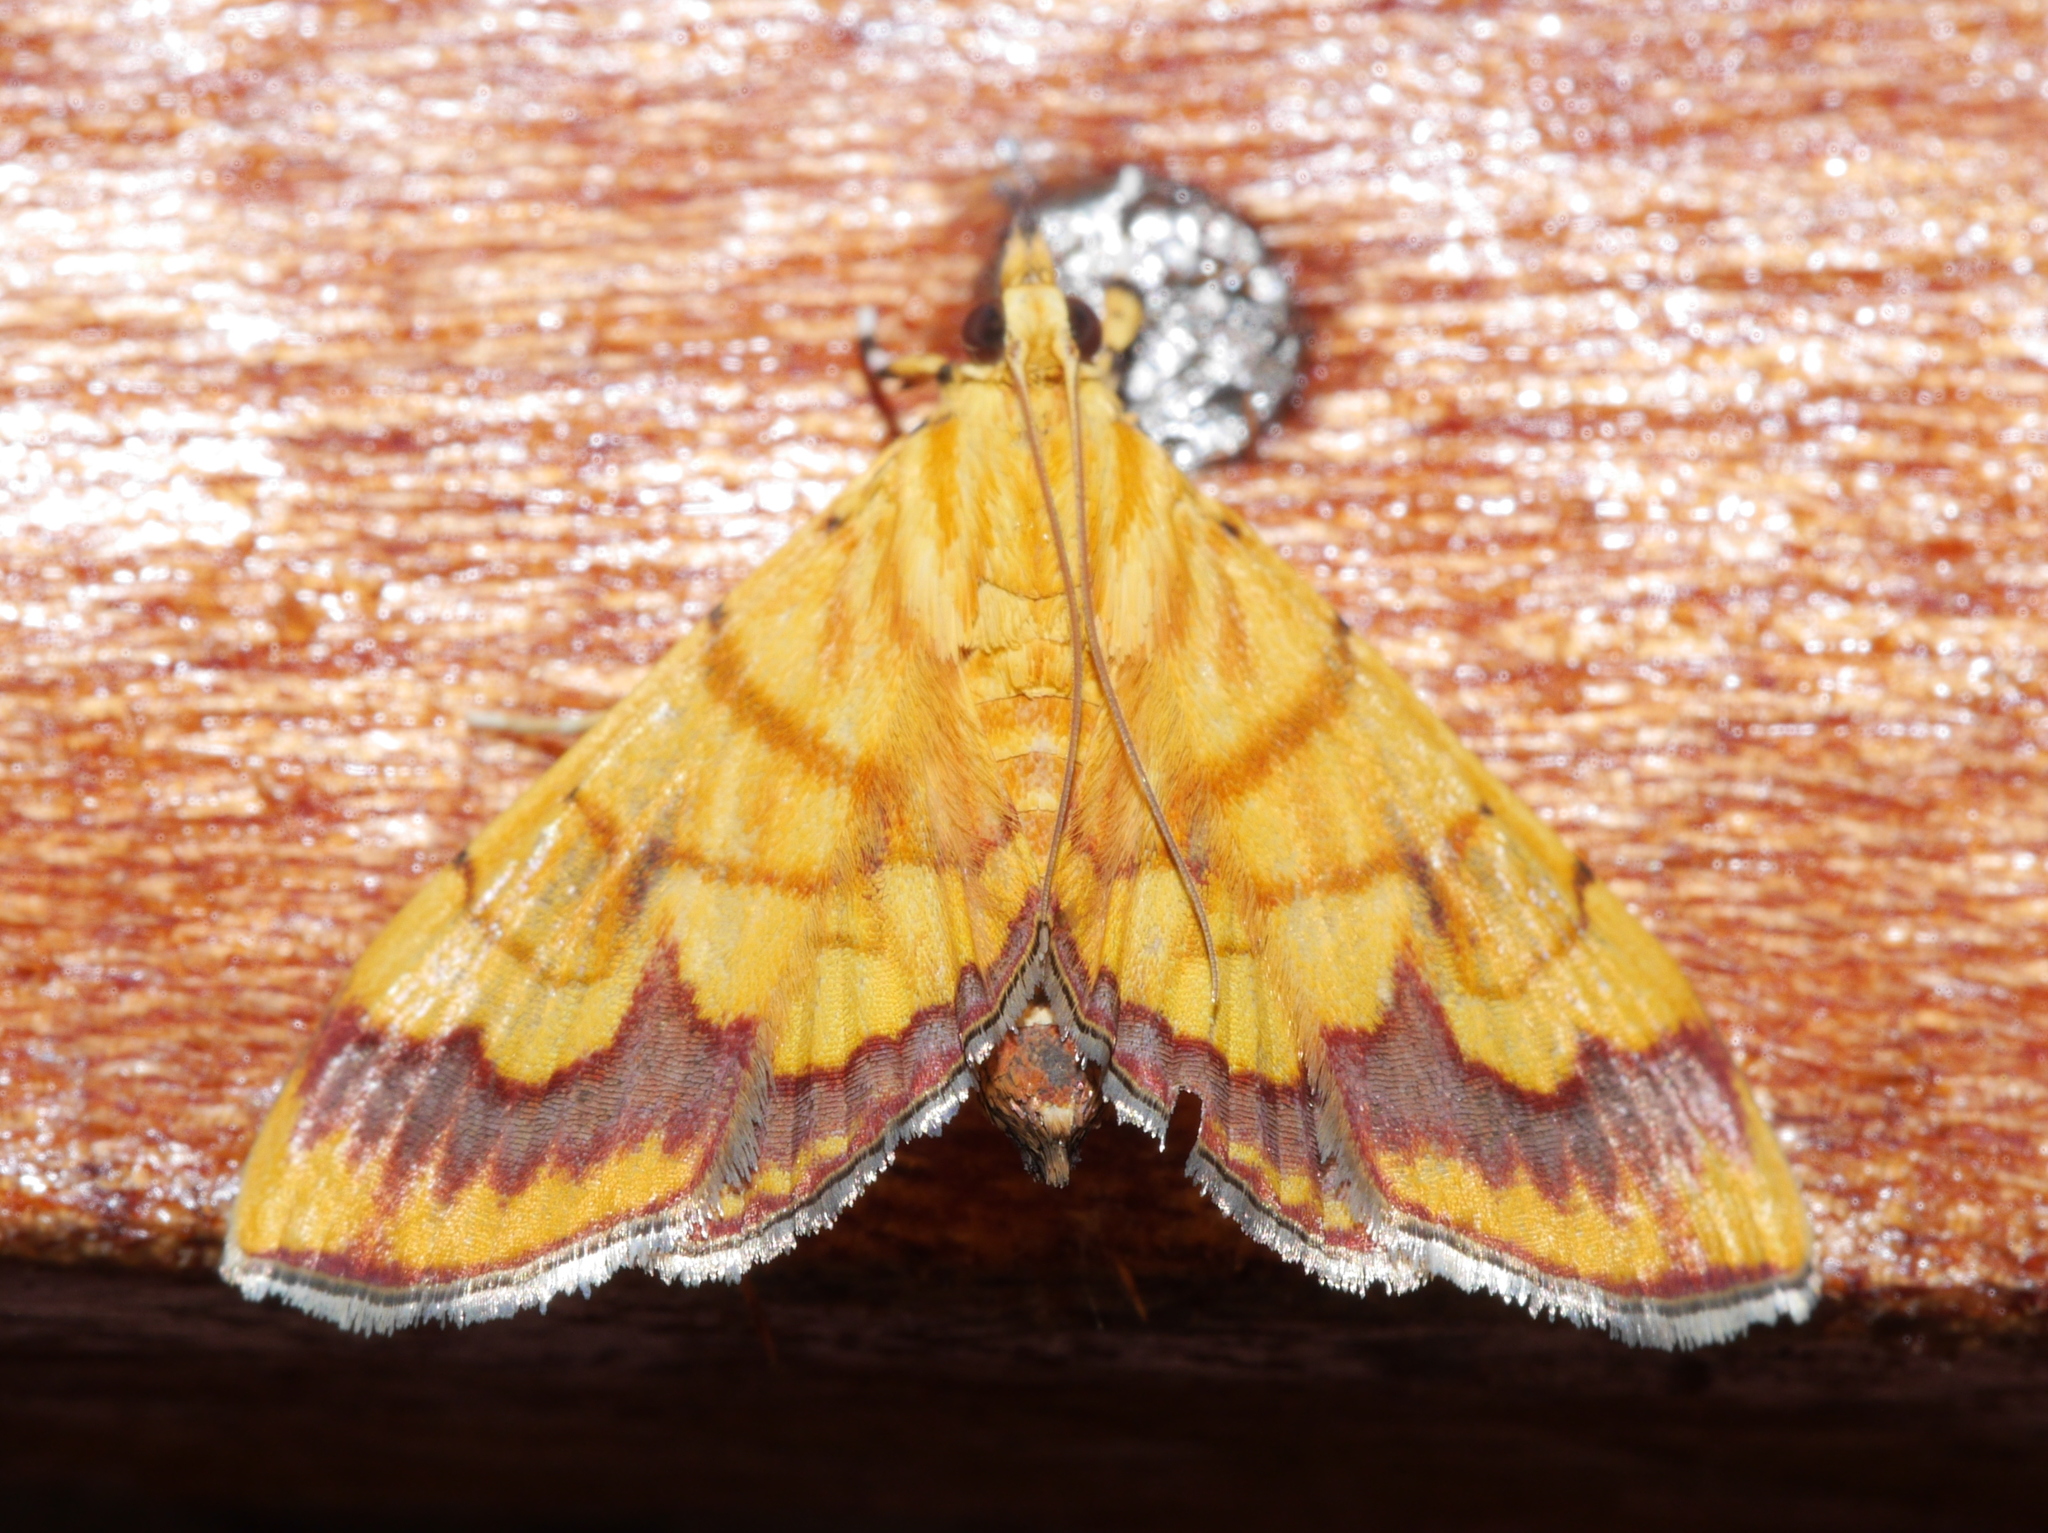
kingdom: Animalia
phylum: Arthropoda
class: Insecta
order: Lepidoptera
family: Crambidae
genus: Cryptosara
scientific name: Cryptosara caritalis
